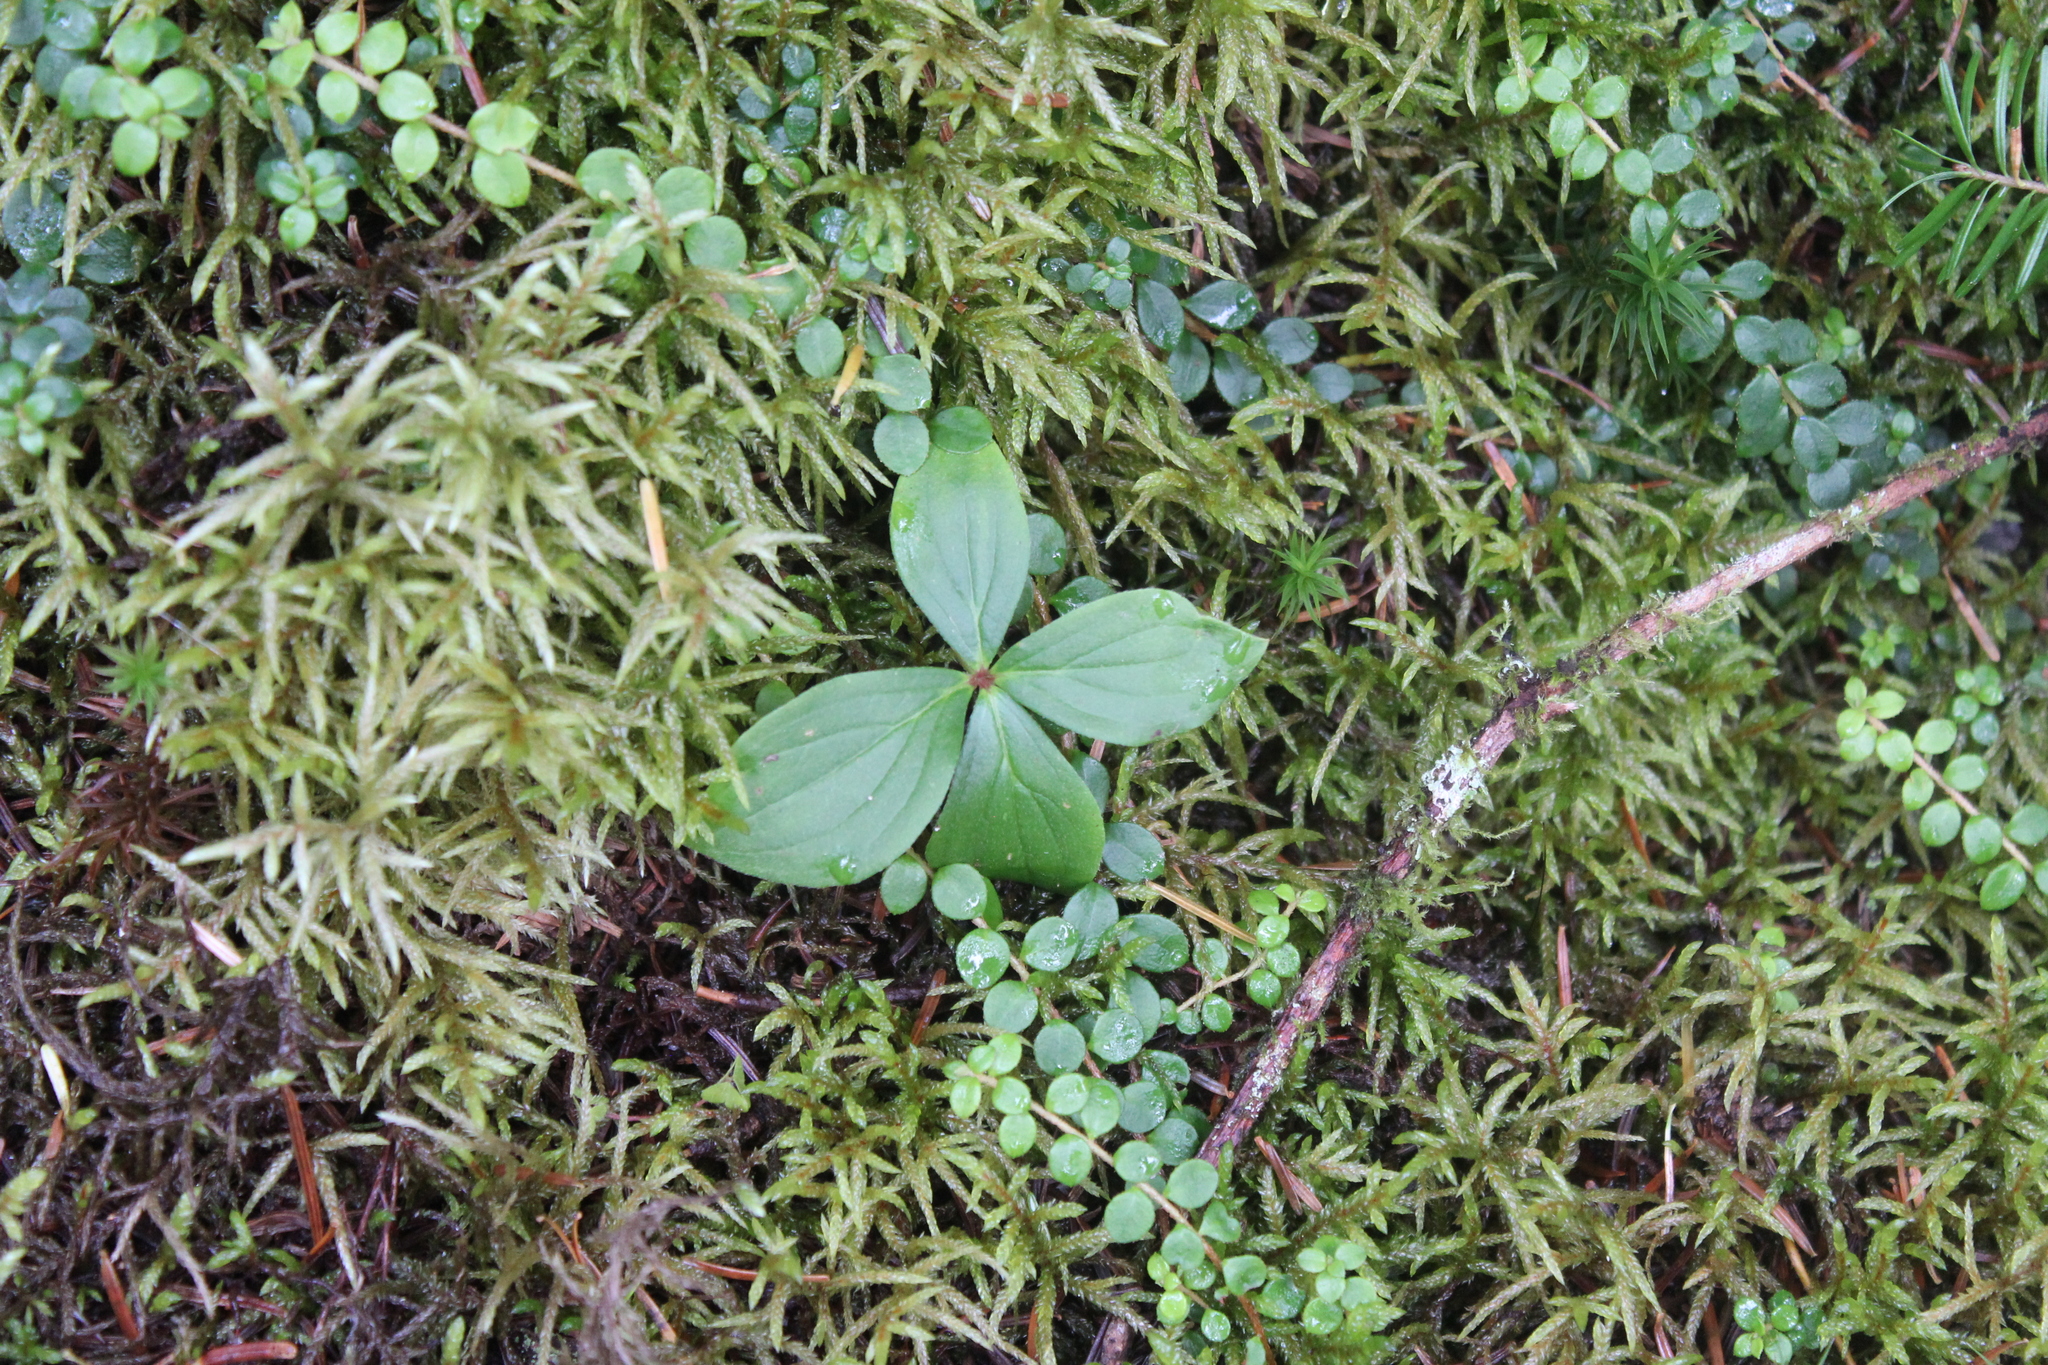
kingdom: Plantae
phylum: Tracheophyta
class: Magnoliopsida
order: Cornales
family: Cornaceae
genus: Cornus
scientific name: Cornus canadensis
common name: Creeping dogwood
